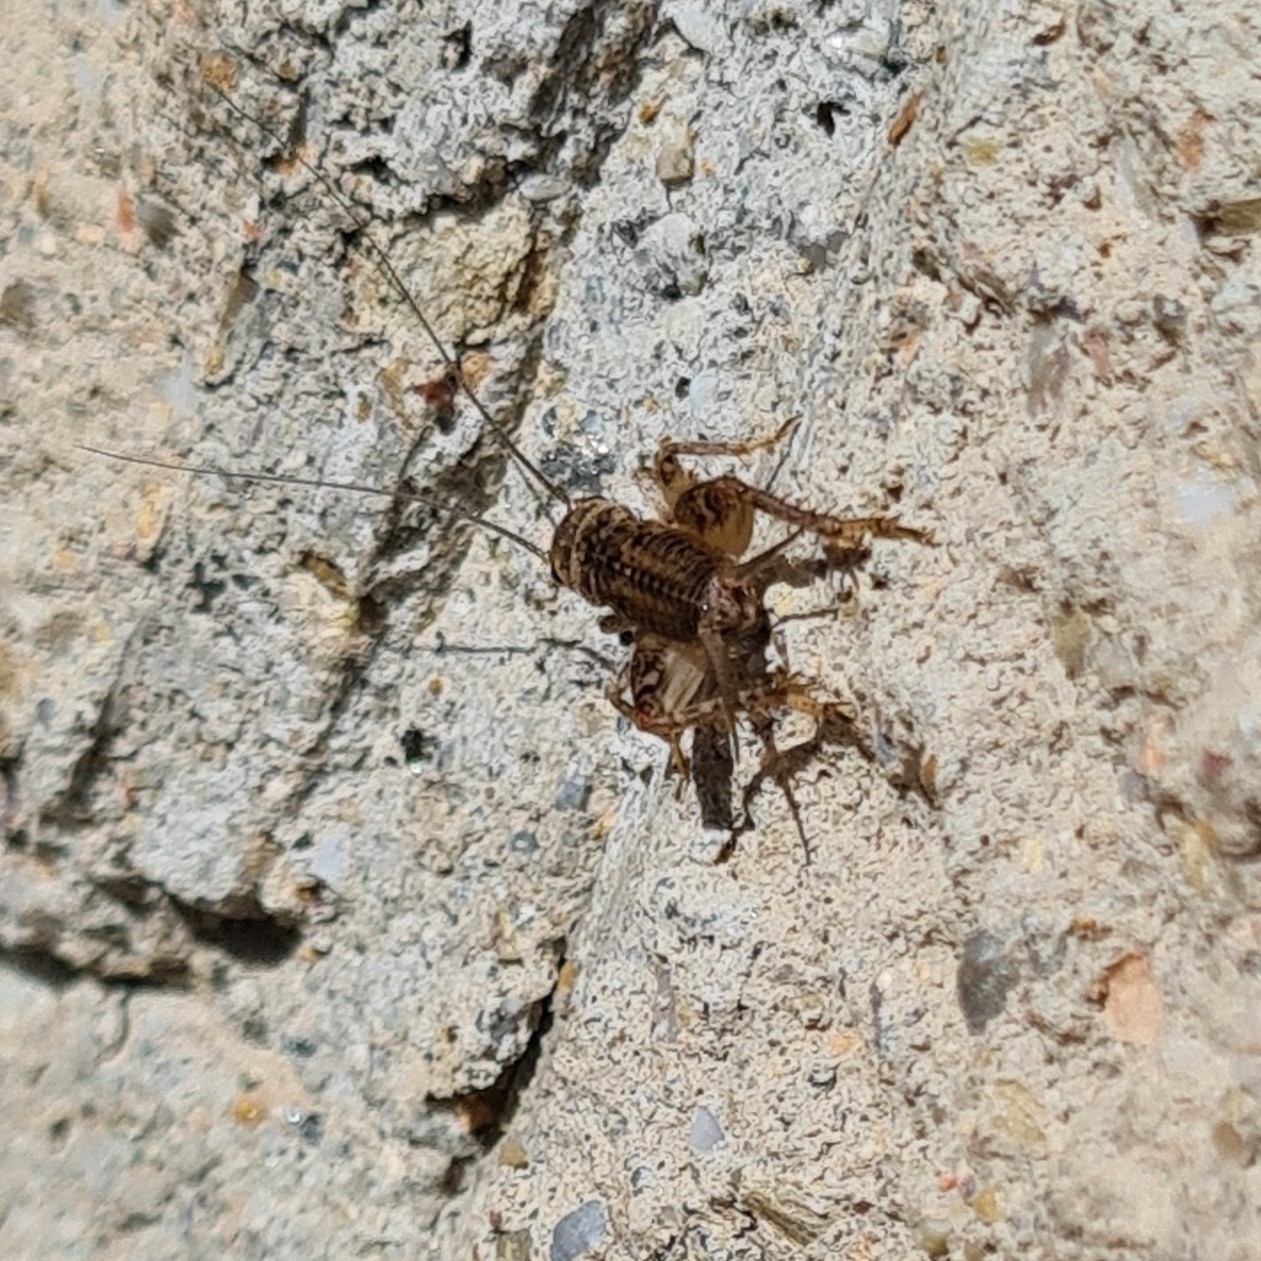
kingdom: Animalia
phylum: Arthropoda
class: Insecta
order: Orthoptera
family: Gryllidae
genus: Eumodicogryllus
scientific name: Eumodicogryllus bordigalensis
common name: Bordeaux cricket
